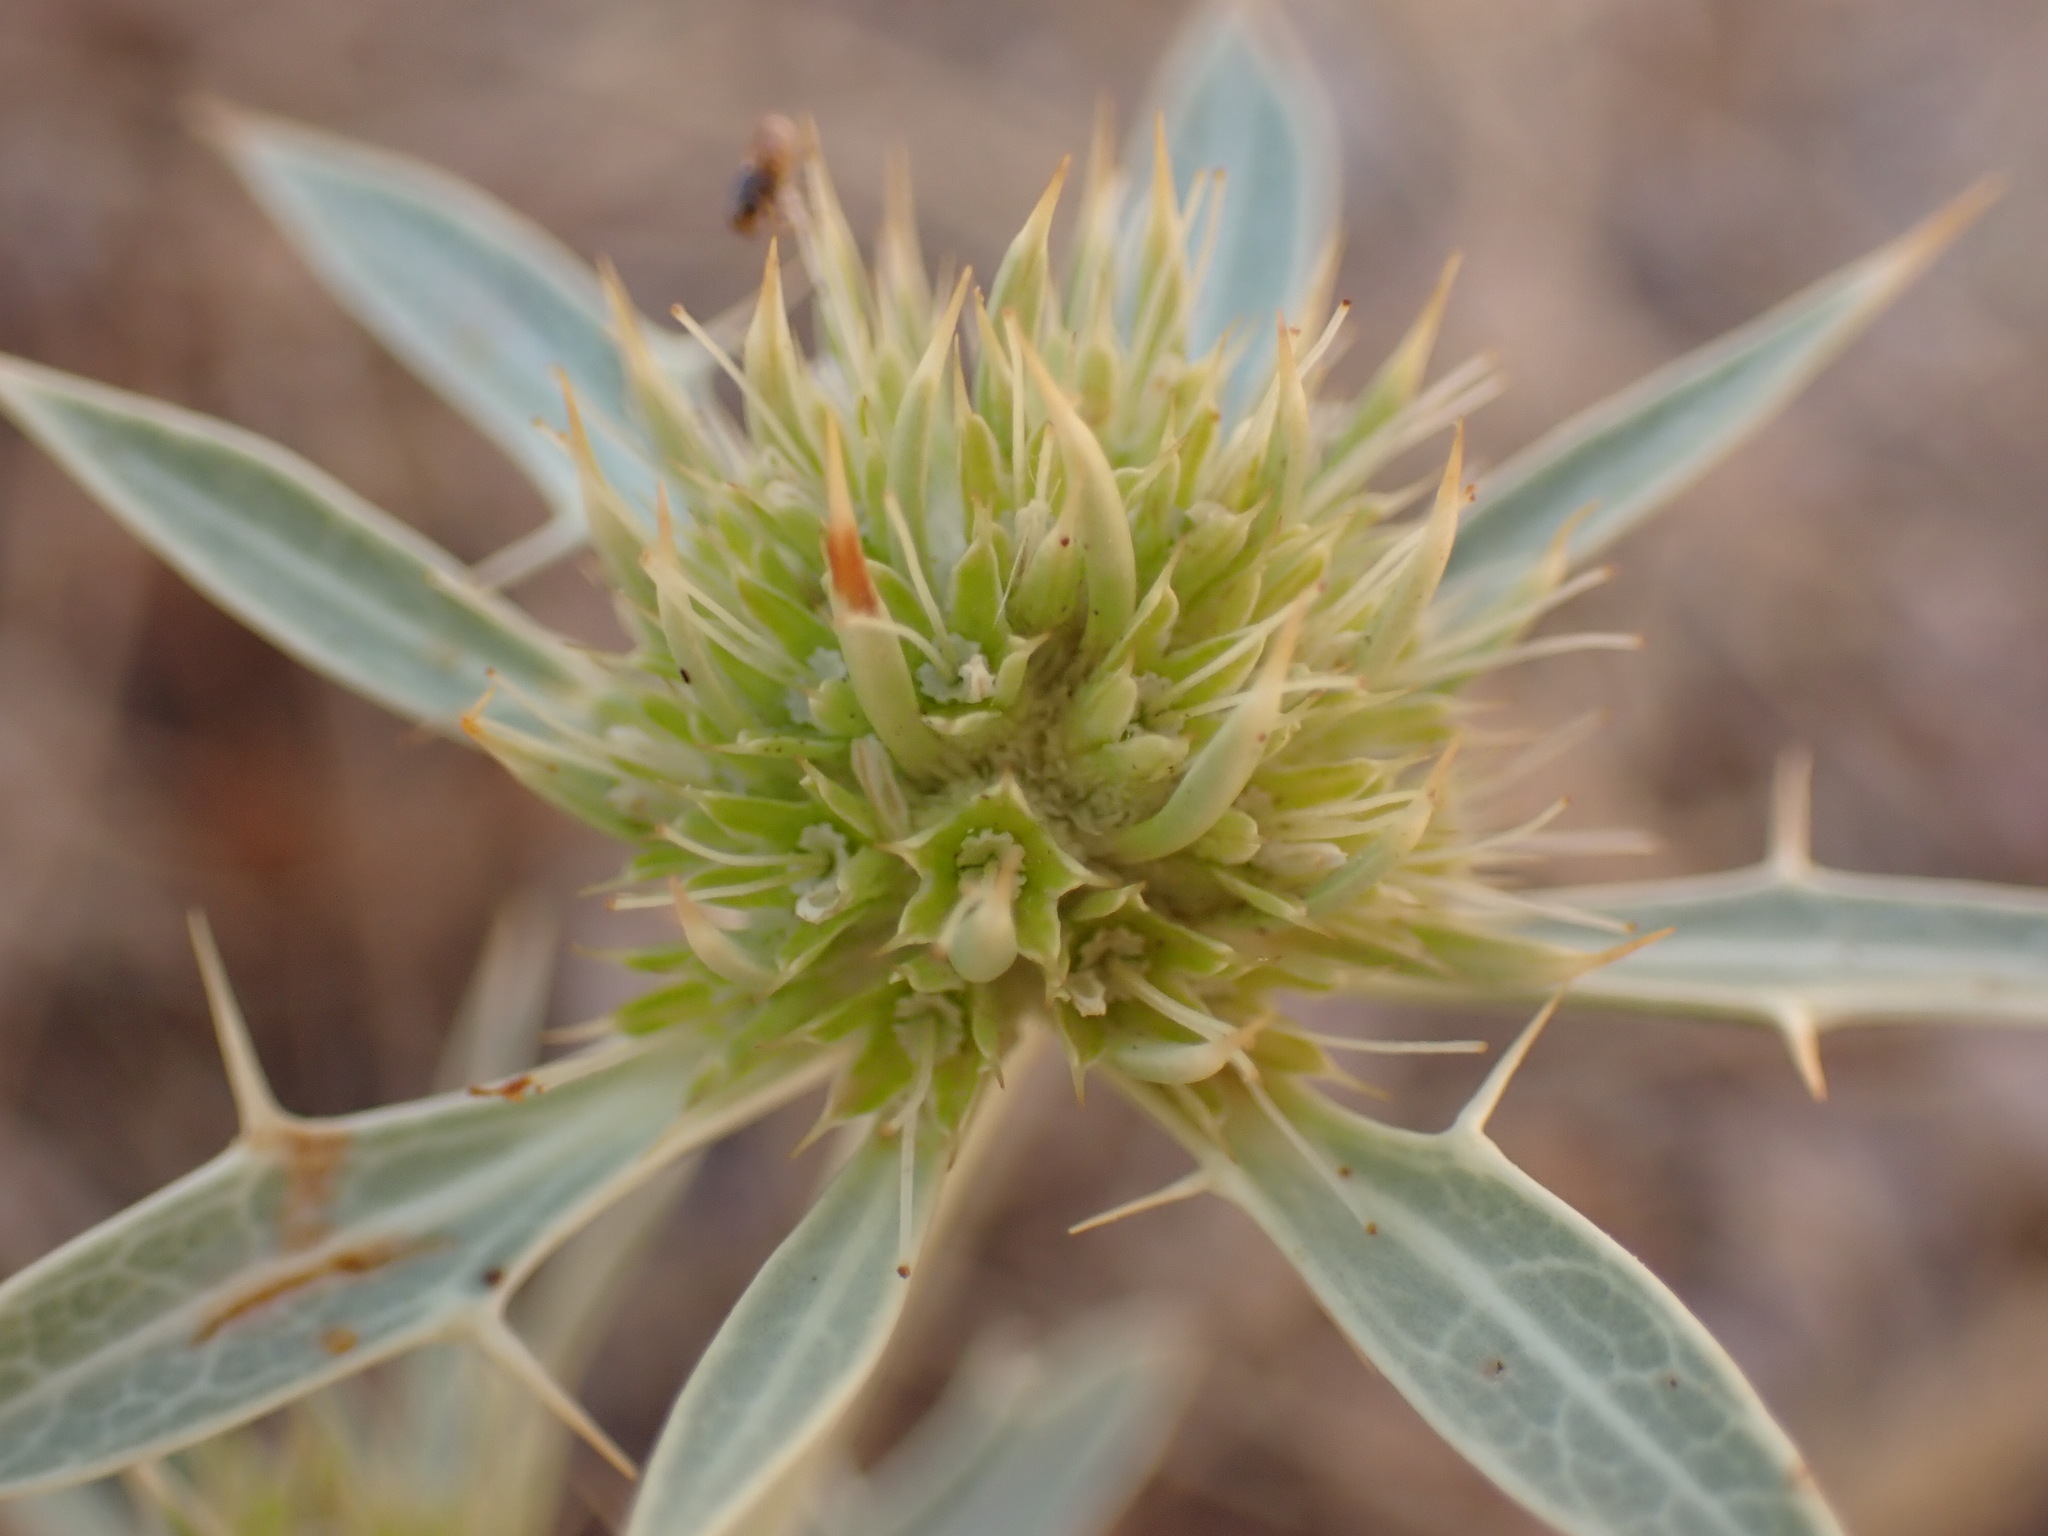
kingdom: Plantae
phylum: Tracheophyta
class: Magnoliopsida
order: Apiales
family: Apiaceae
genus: Eryngium
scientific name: Eryngium campestre
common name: Field eryngo
